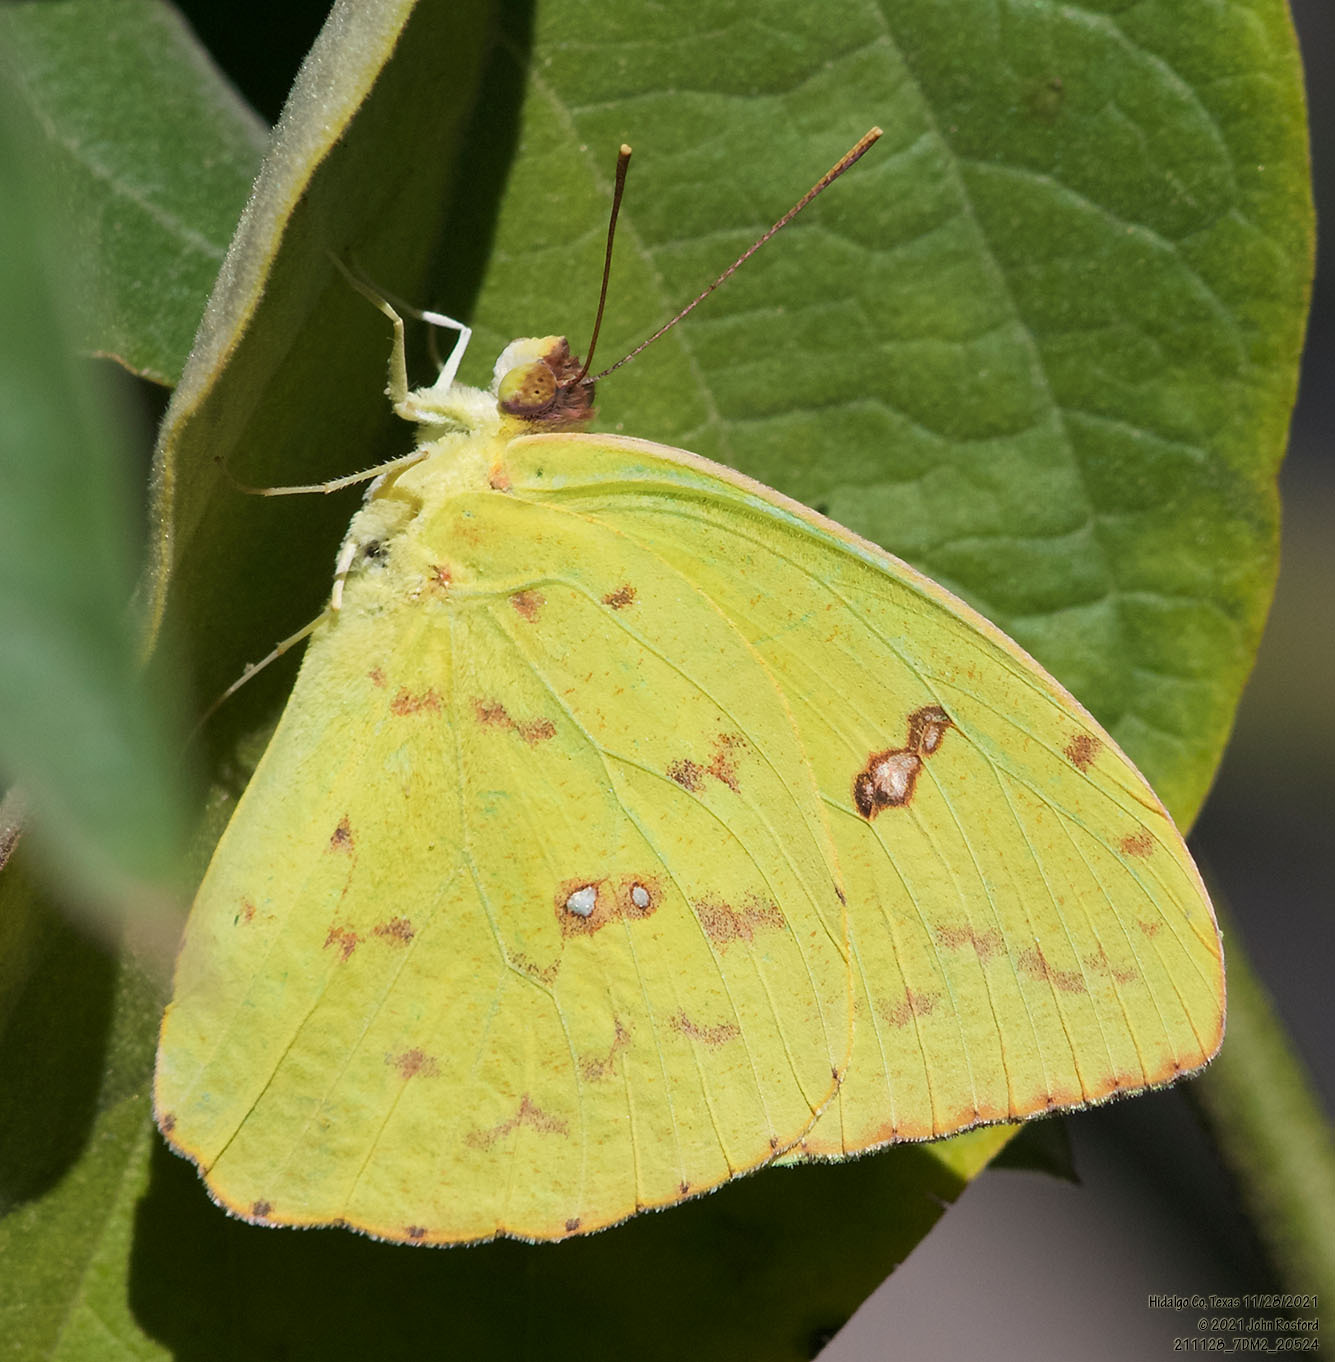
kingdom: Animalia
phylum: Arthropoda
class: Insecta
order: Lepidoptera
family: Pieridae
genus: Phoebis
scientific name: Phoebis sennae
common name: Cloudless sulphur
